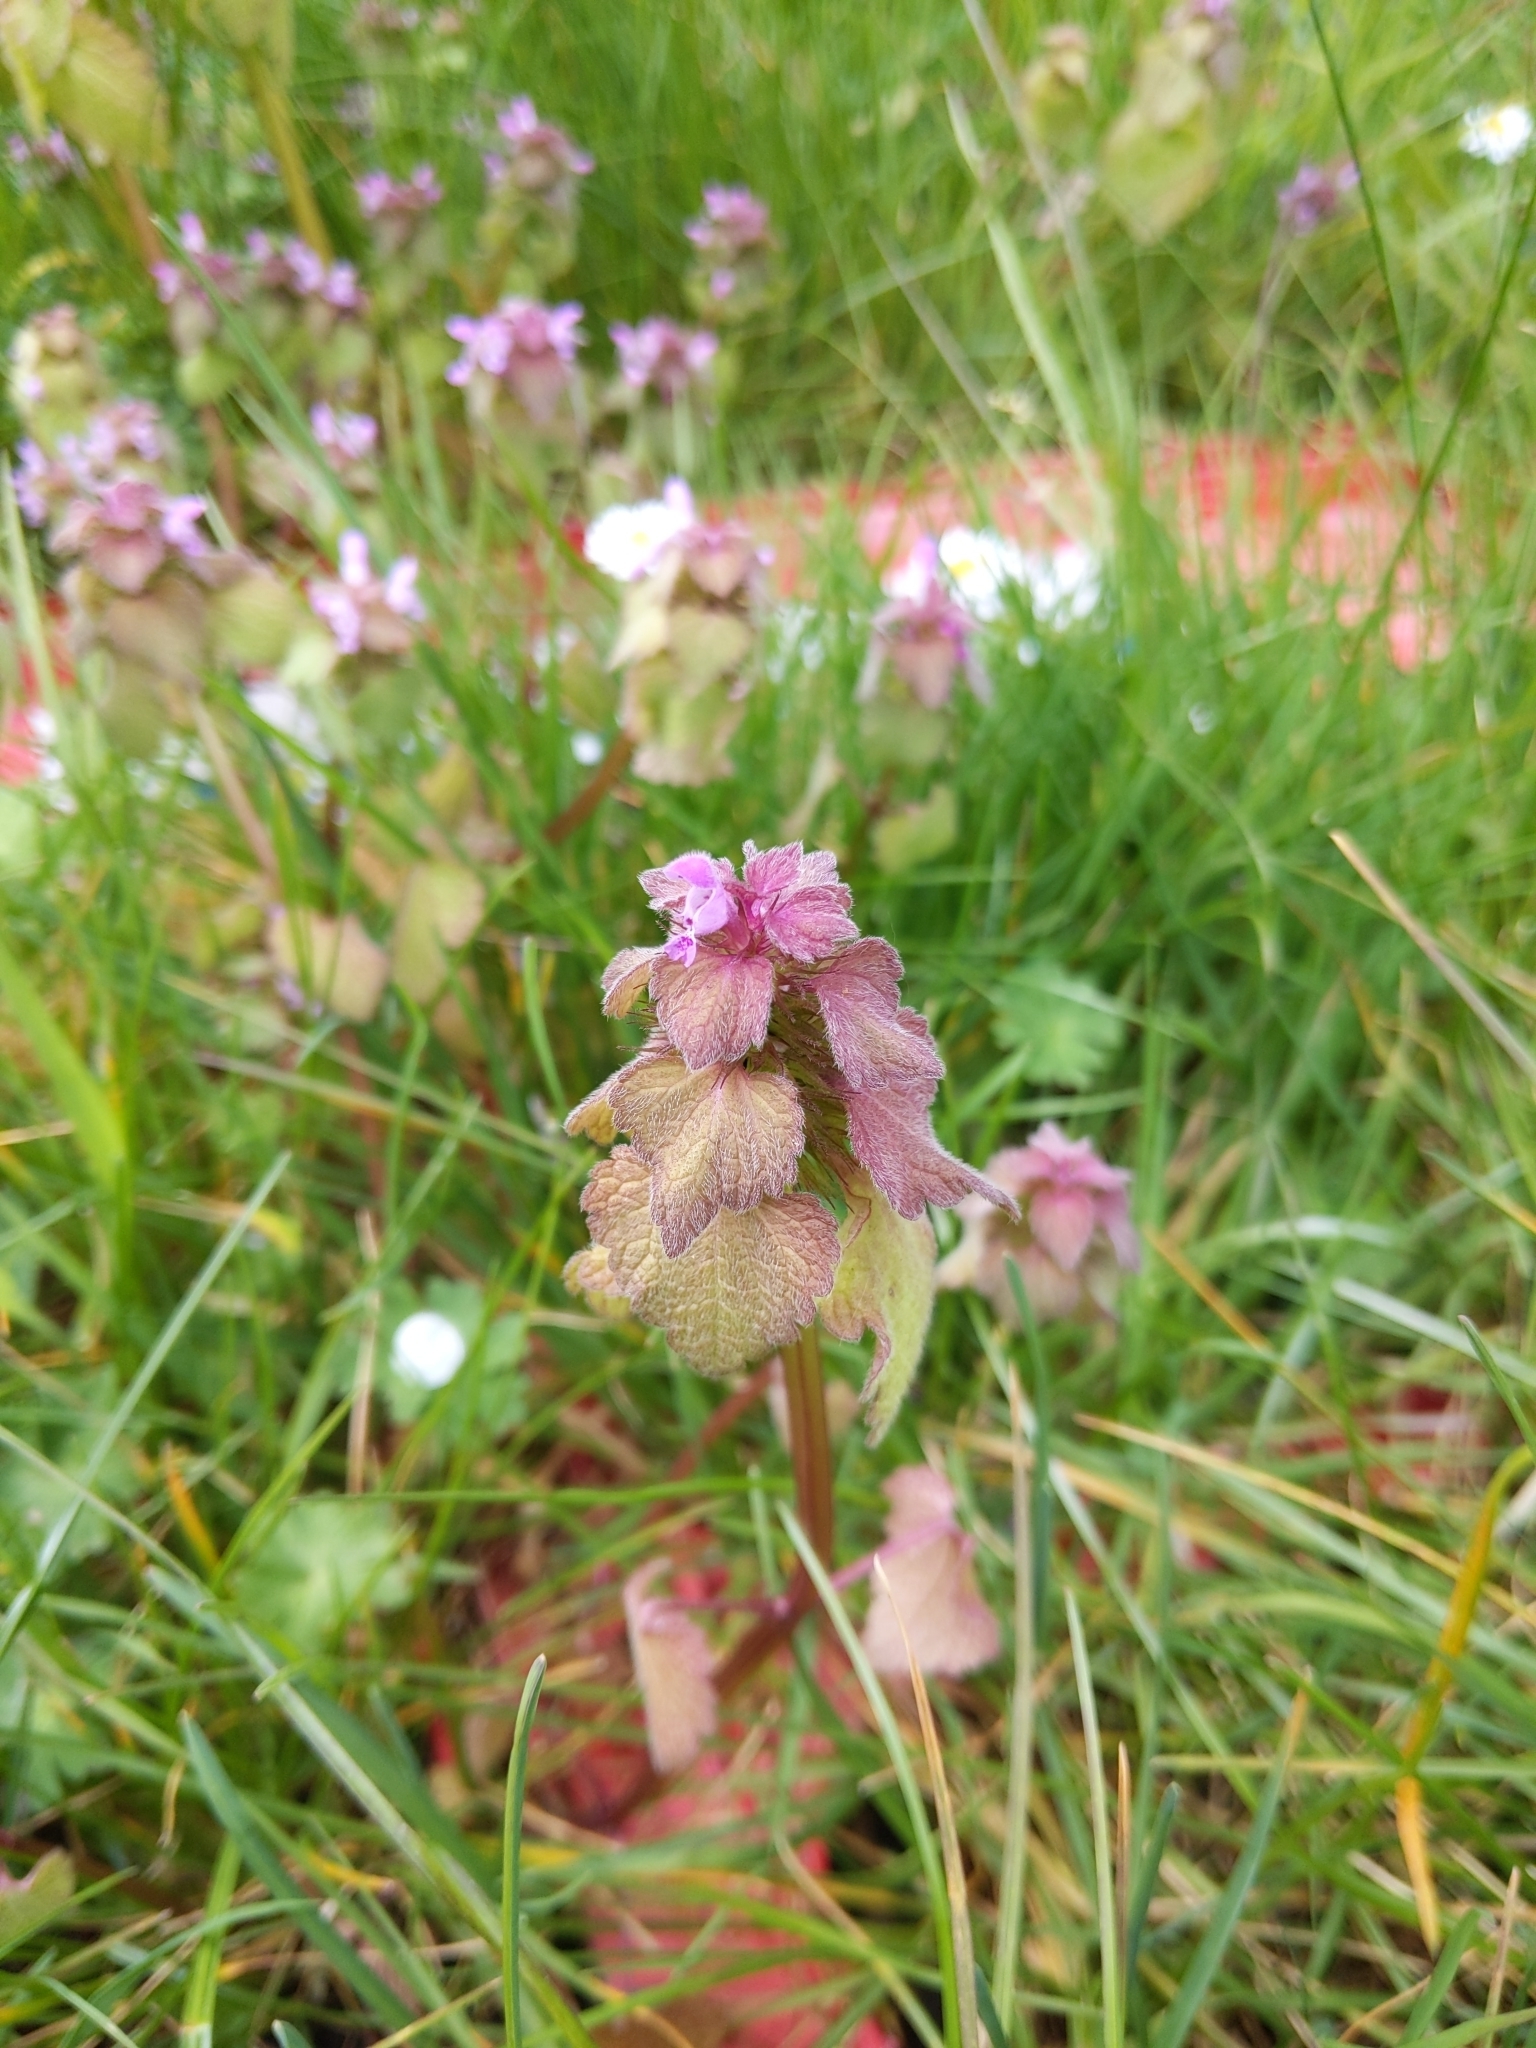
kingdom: Plantae
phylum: Tracheophyta
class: Magnoliopsida
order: Lamiales
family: Lamiaceae
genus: Lamium
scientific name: Lamium purpureum
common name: Red dead-nettle
